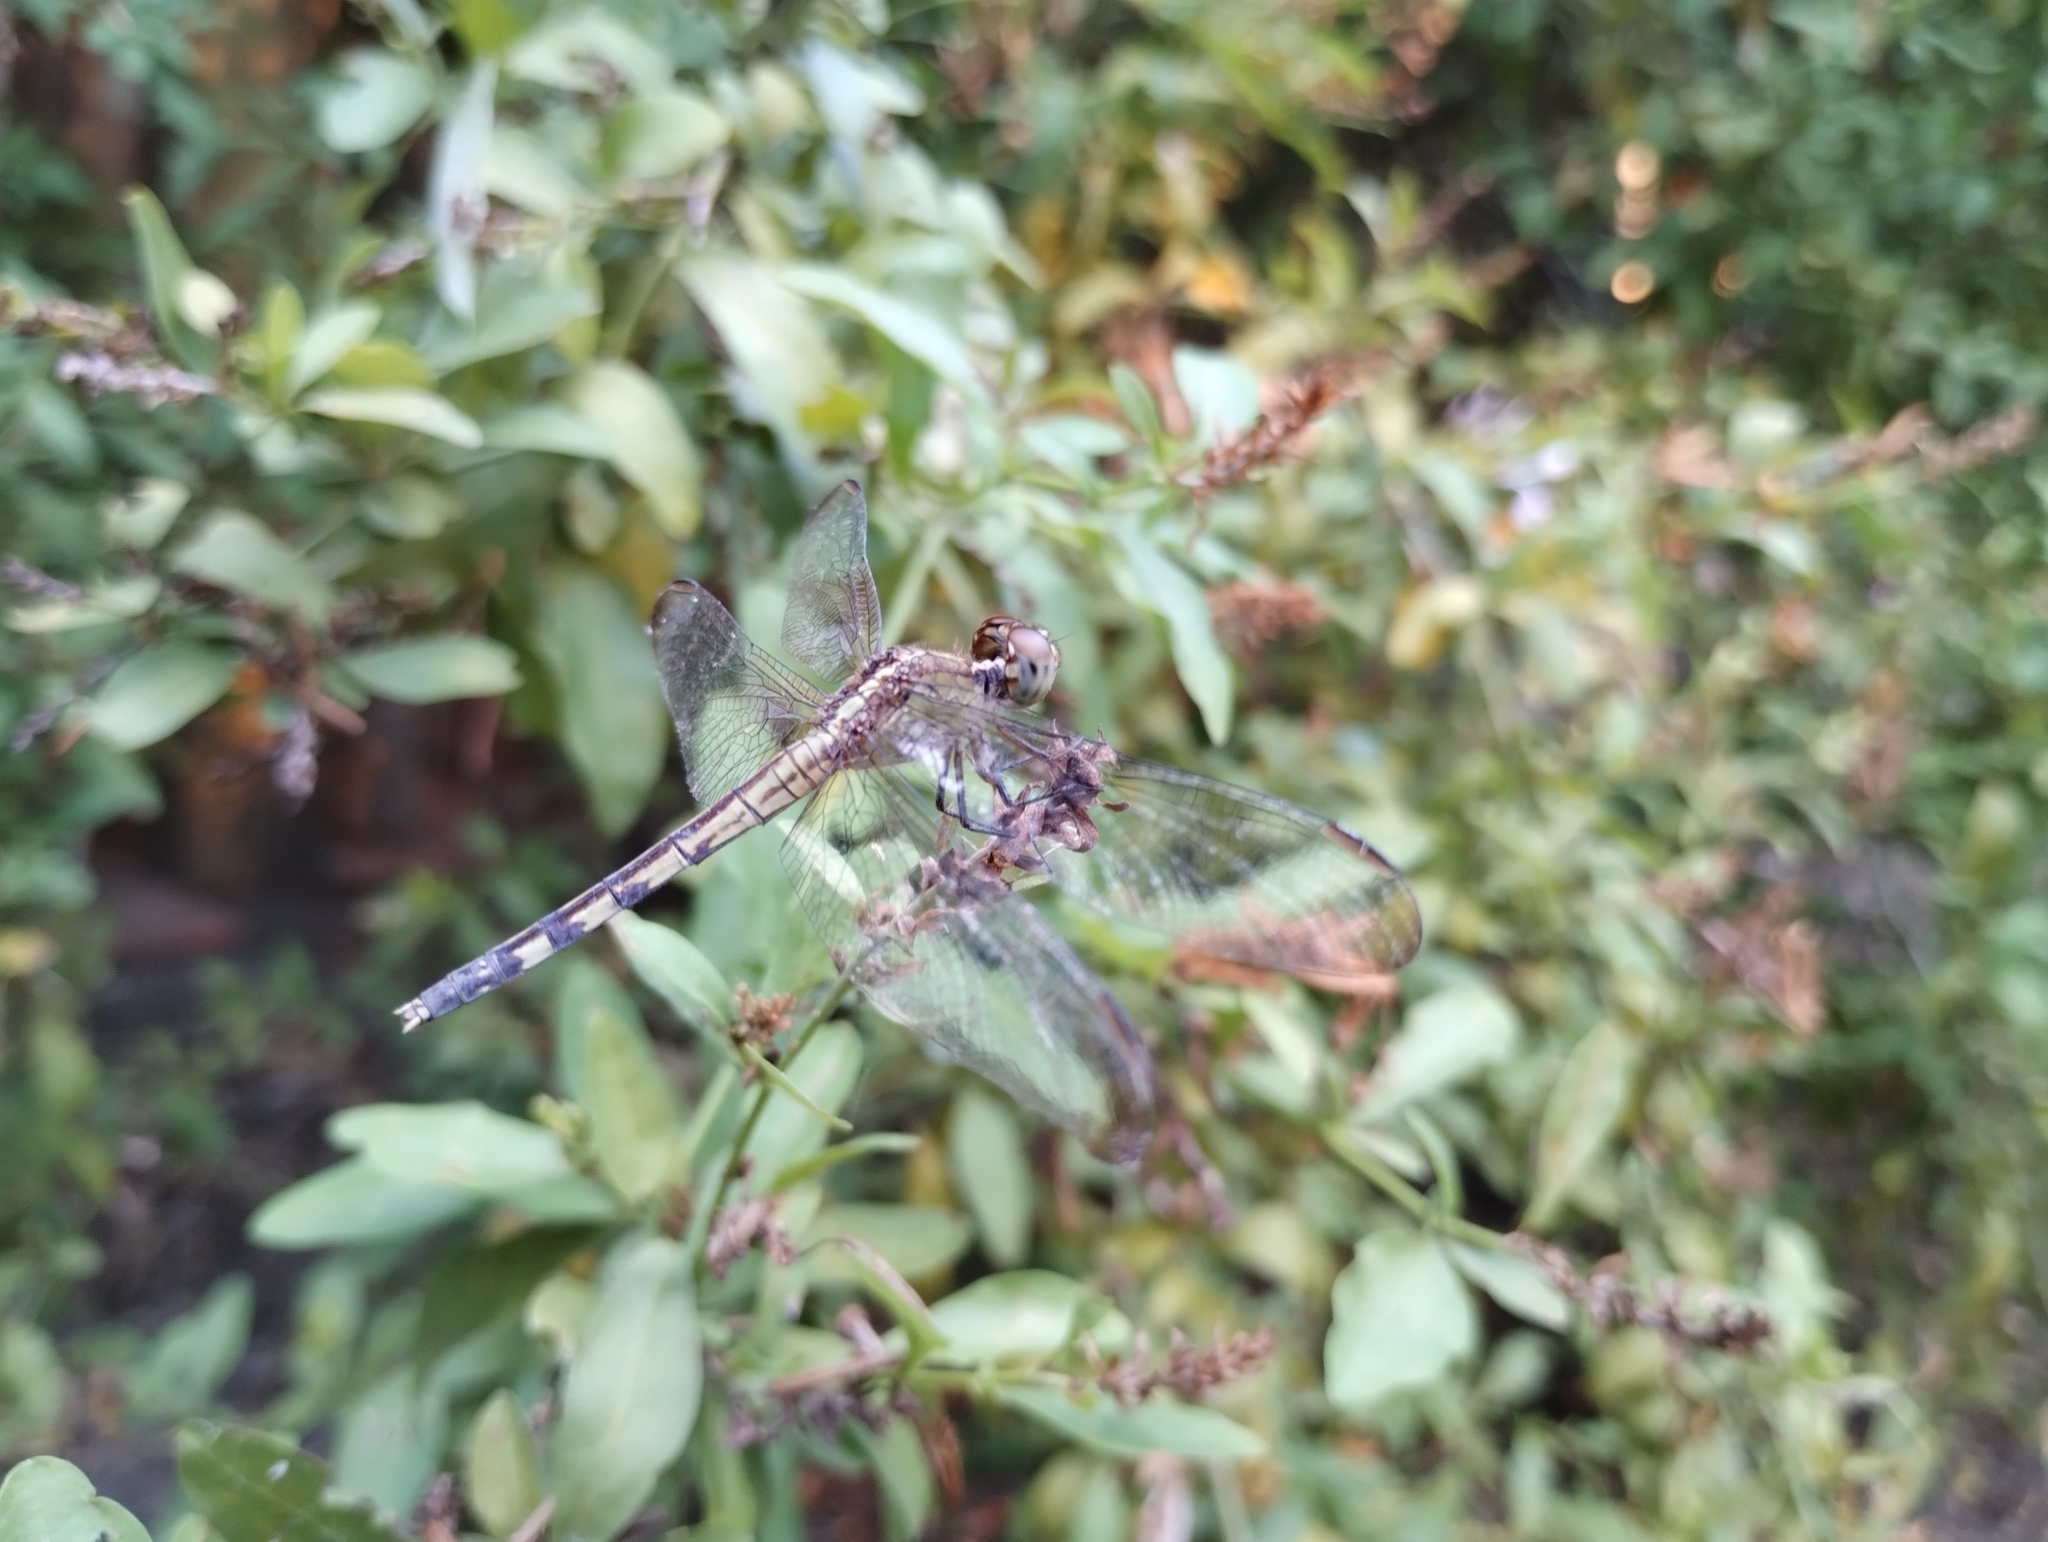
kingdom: Animalia
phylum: Arthropoda
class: Insecta
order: Odonata
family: Libellulidae
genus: Erythrodiplax
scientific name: Erythrodiplax umbrata
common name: Band-winged dragonlet
